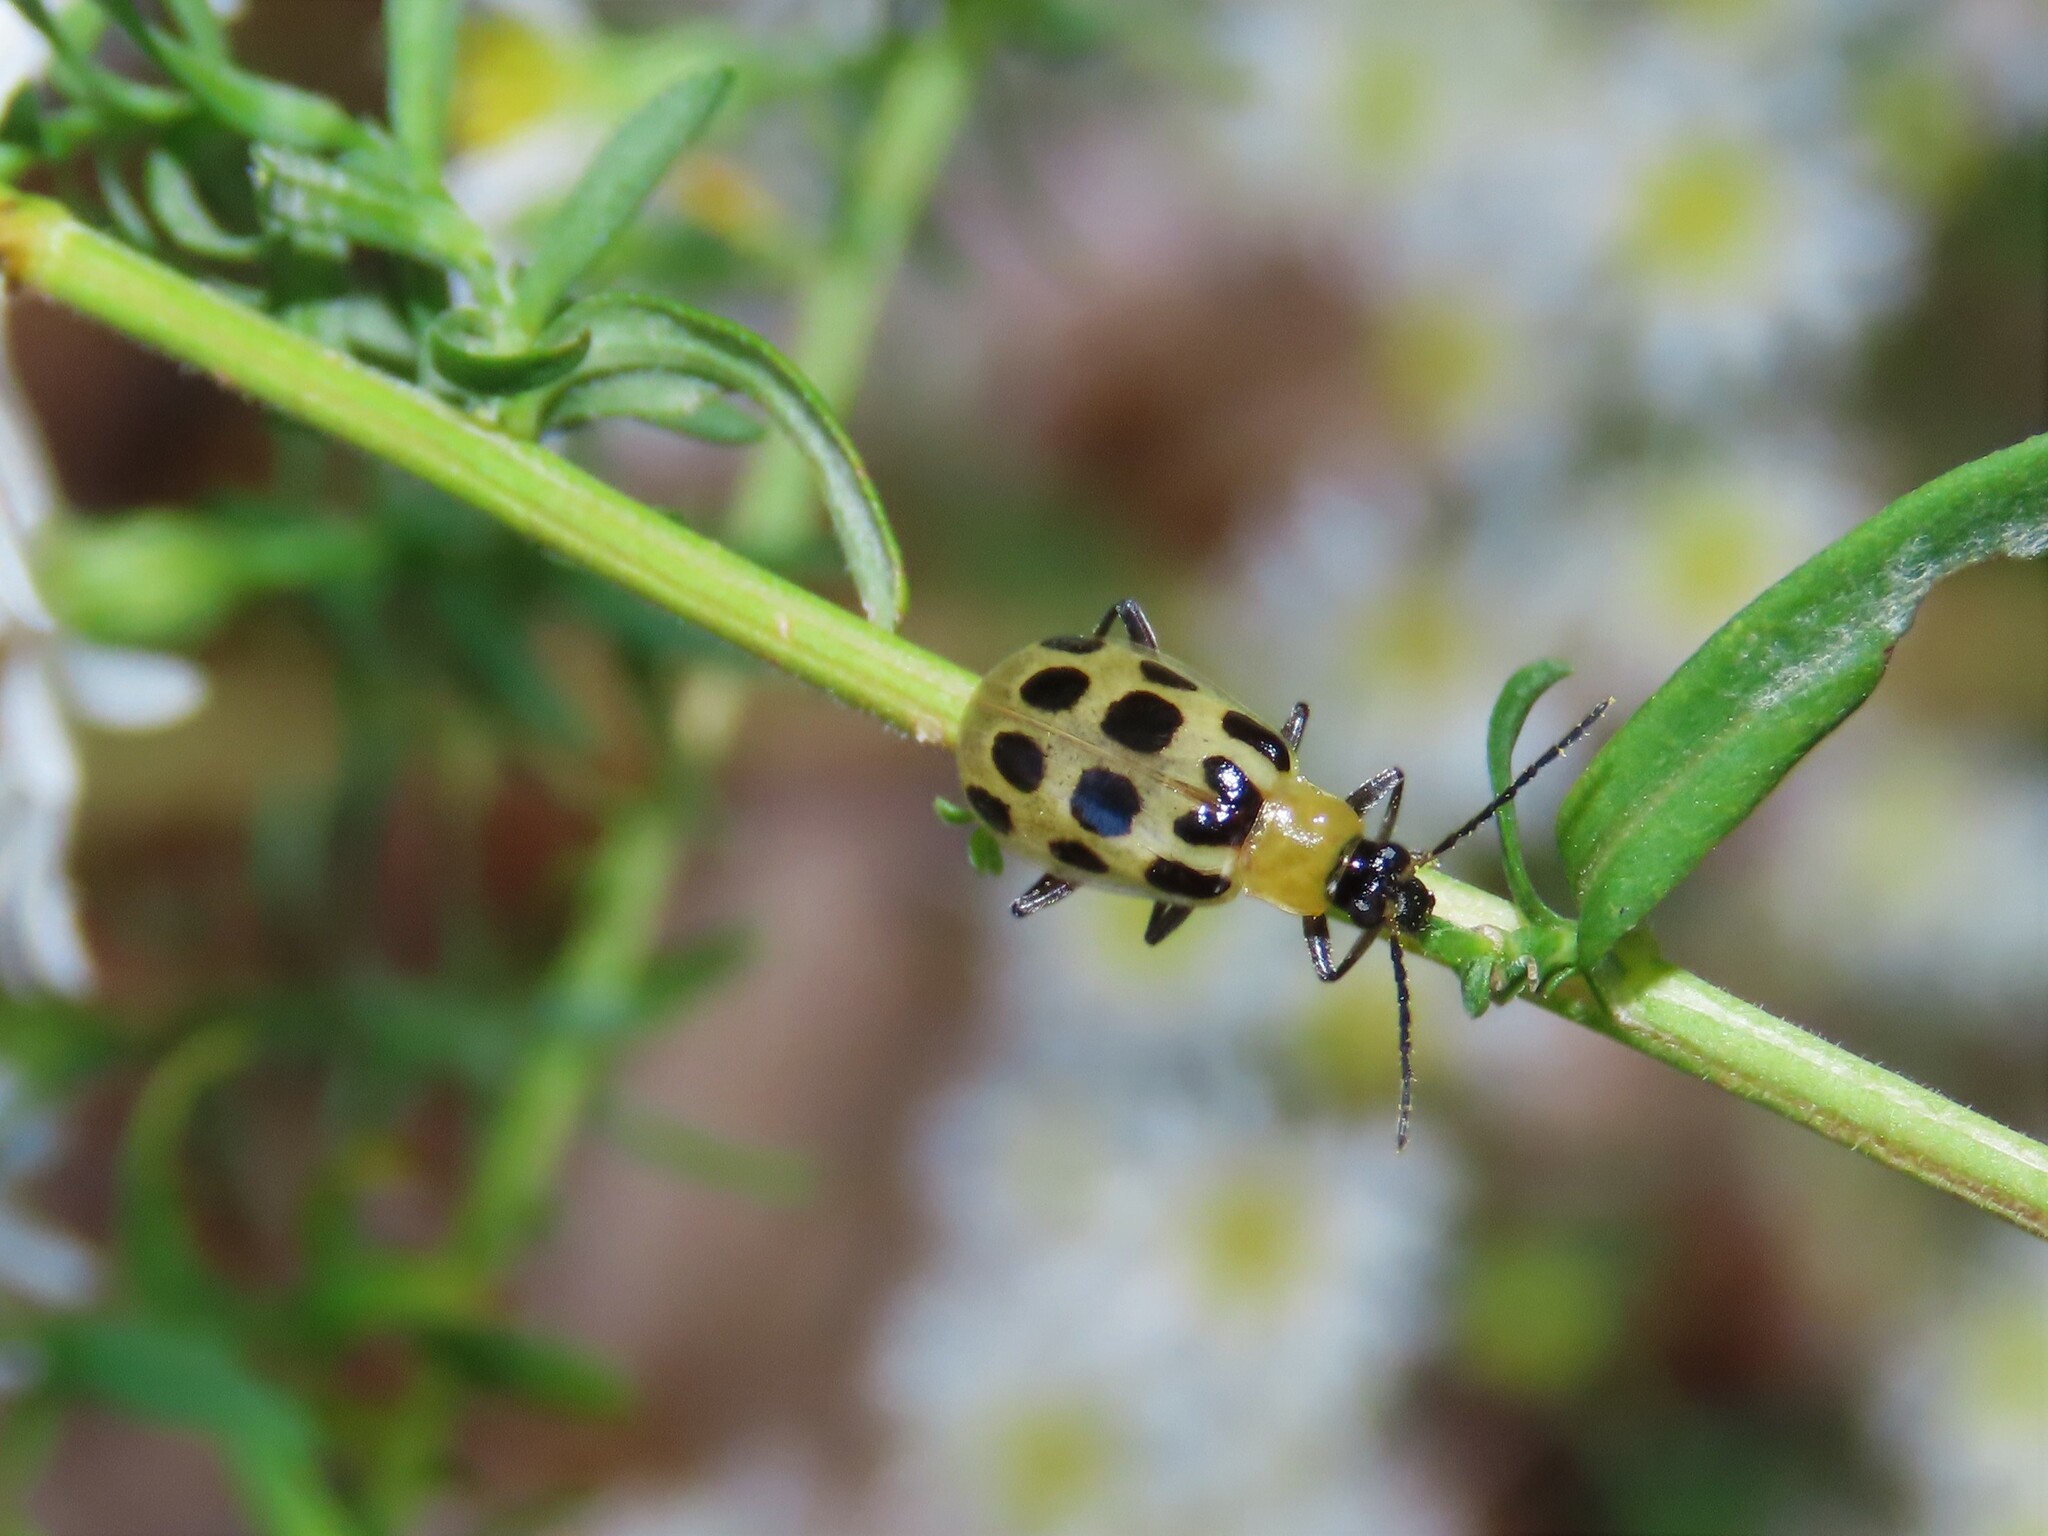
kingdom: Animalia
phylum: Arthropoda
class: Insecta
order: Coleoptera
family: Chrysomelidae
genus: Diabrotica
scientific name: Diabrotica undecimpunctata
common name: Spotted cucumber beetle
